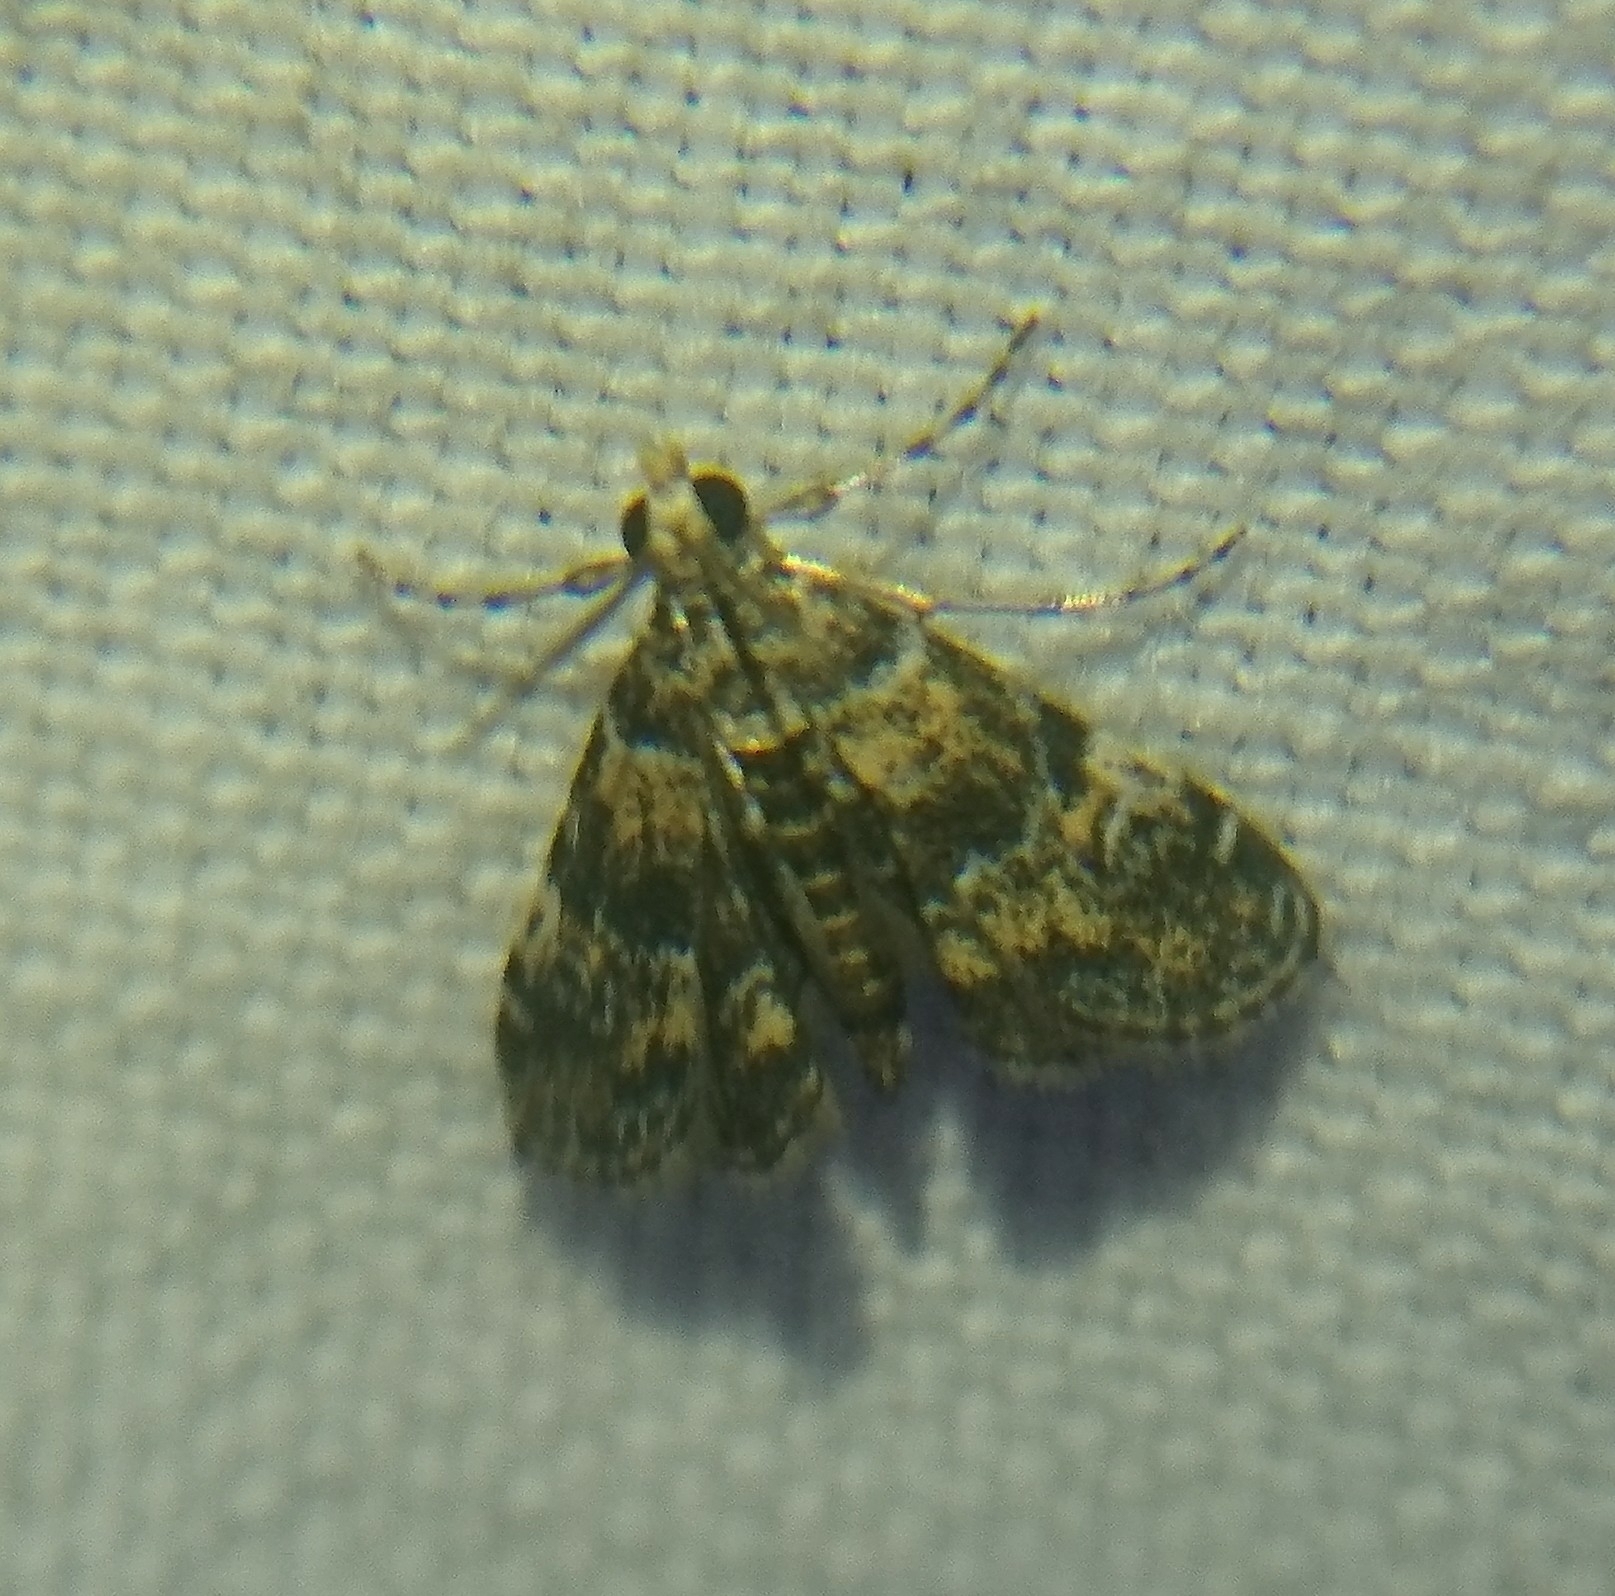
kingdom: Animalia
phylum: Arthropoda
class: Insecta
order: Lepidoptera
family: Crambidae
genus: Elophila
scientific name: Elophila obliteralis
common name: Waterlily leafcutter moth
